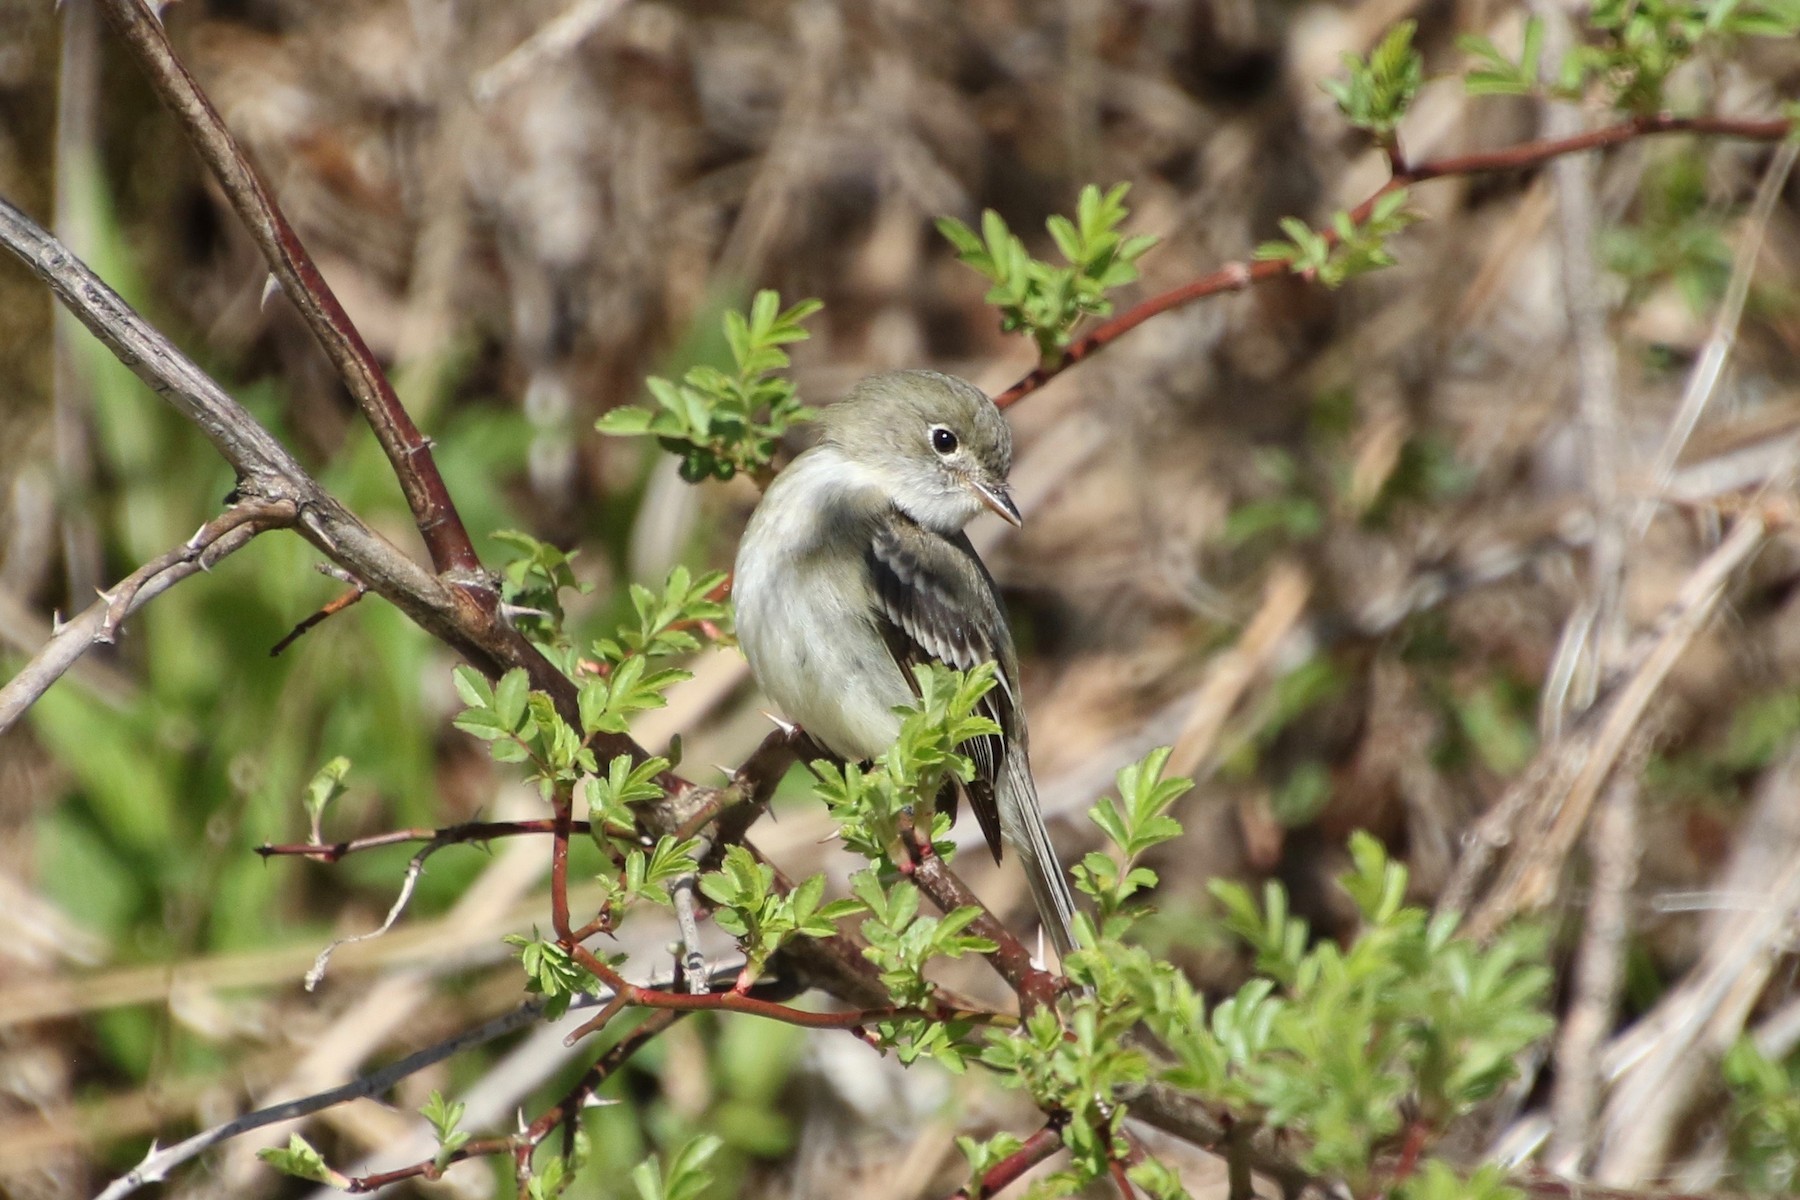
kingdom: Animalia
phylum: Chordata
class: Aves
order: Passeriformes
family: Tyrannidae
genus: Empidonax
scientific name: Empidonax minimus
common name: Least flycatcher
